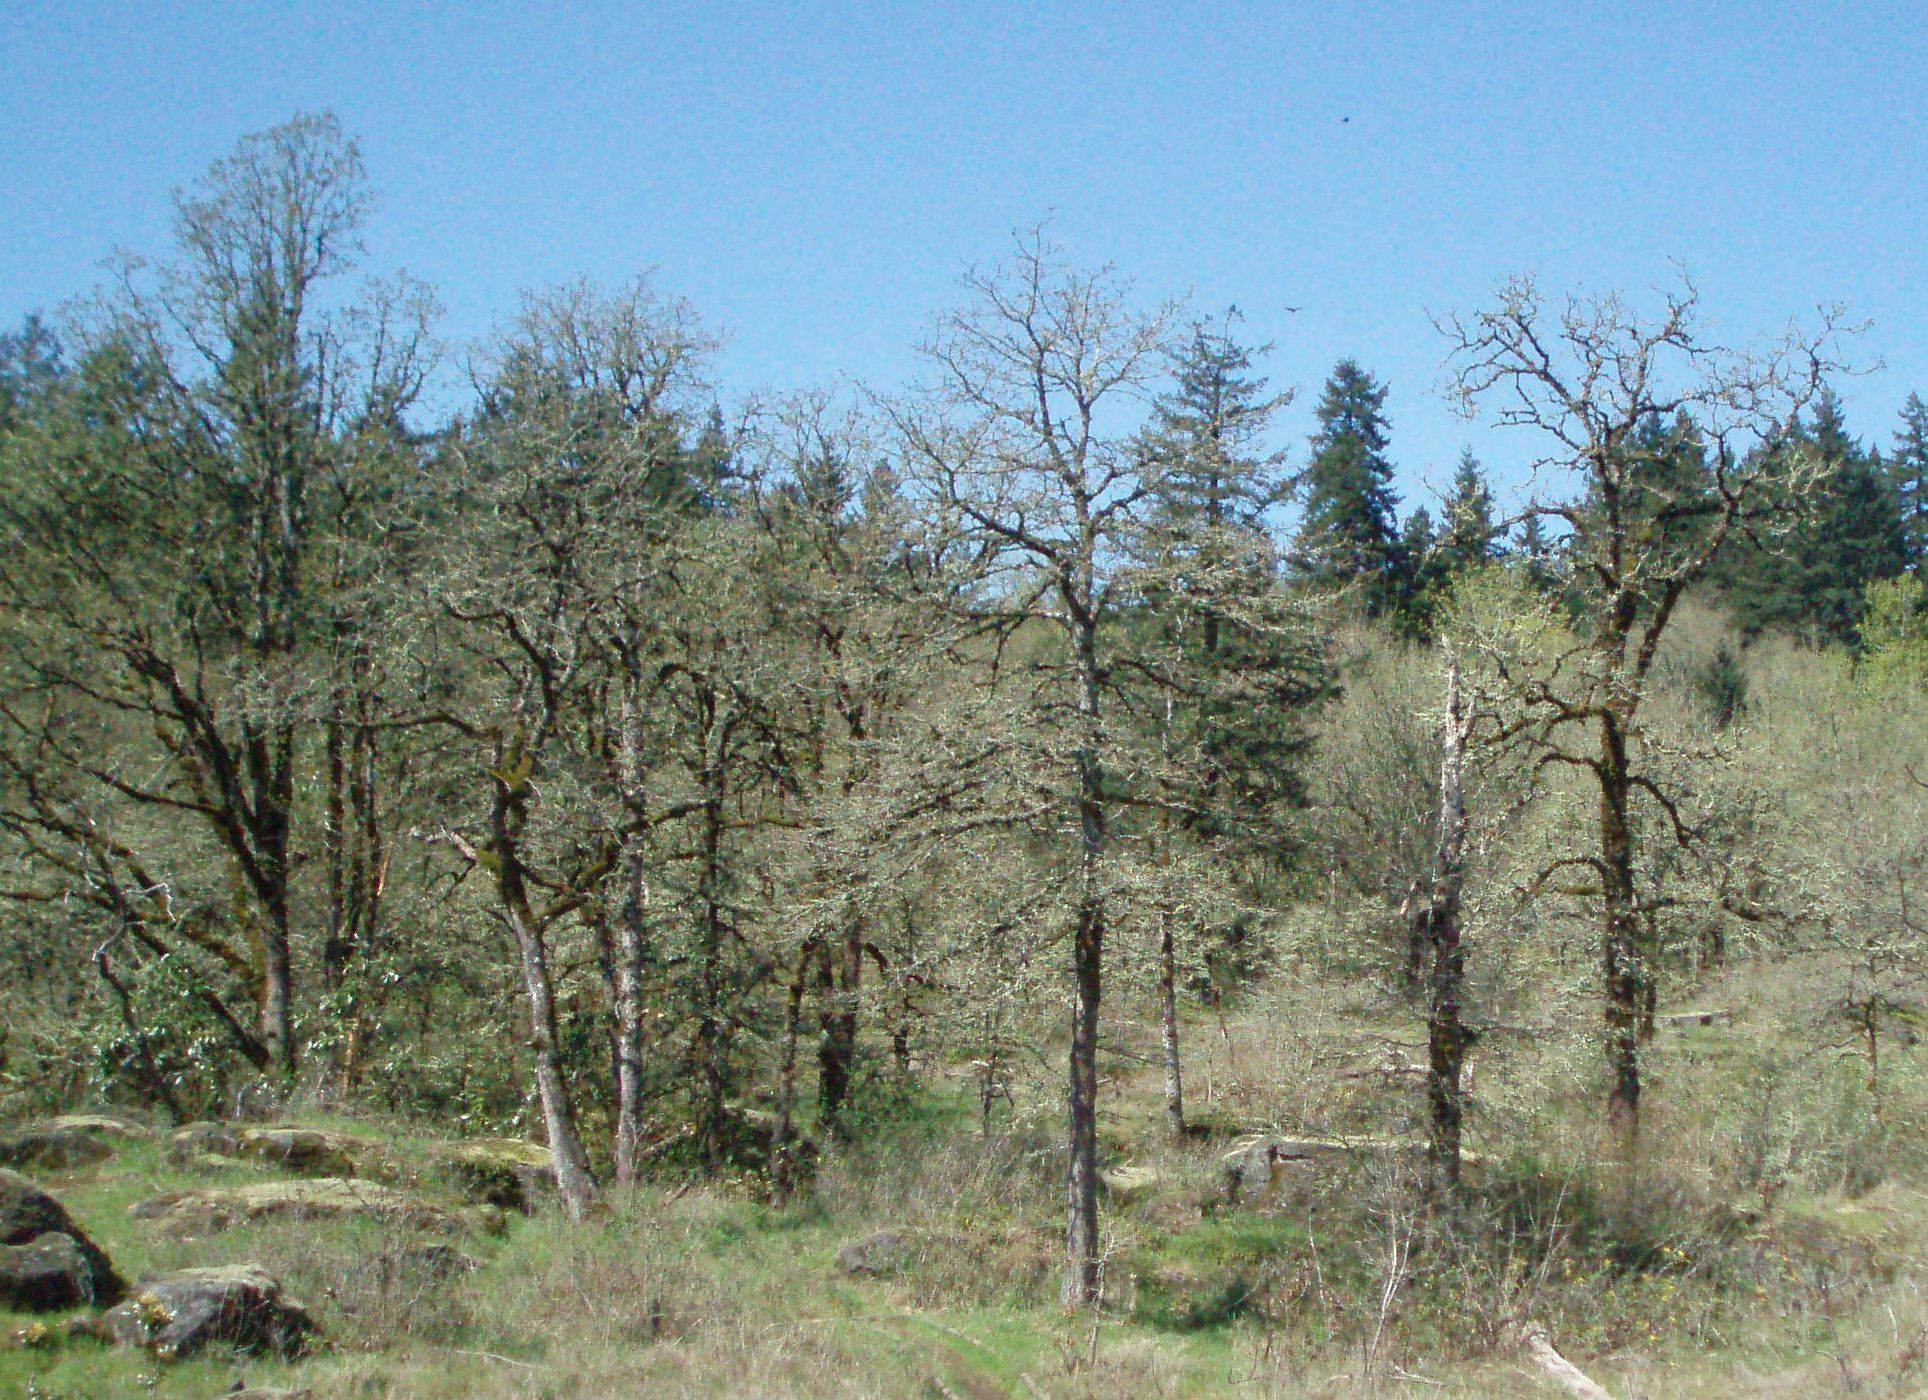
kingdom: Plantae
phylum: Tracheophyta
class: Magnoliopsida
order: Fagales
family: Fagaceae
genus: Quercus
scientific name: Quercus garryana
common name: Garry oak
